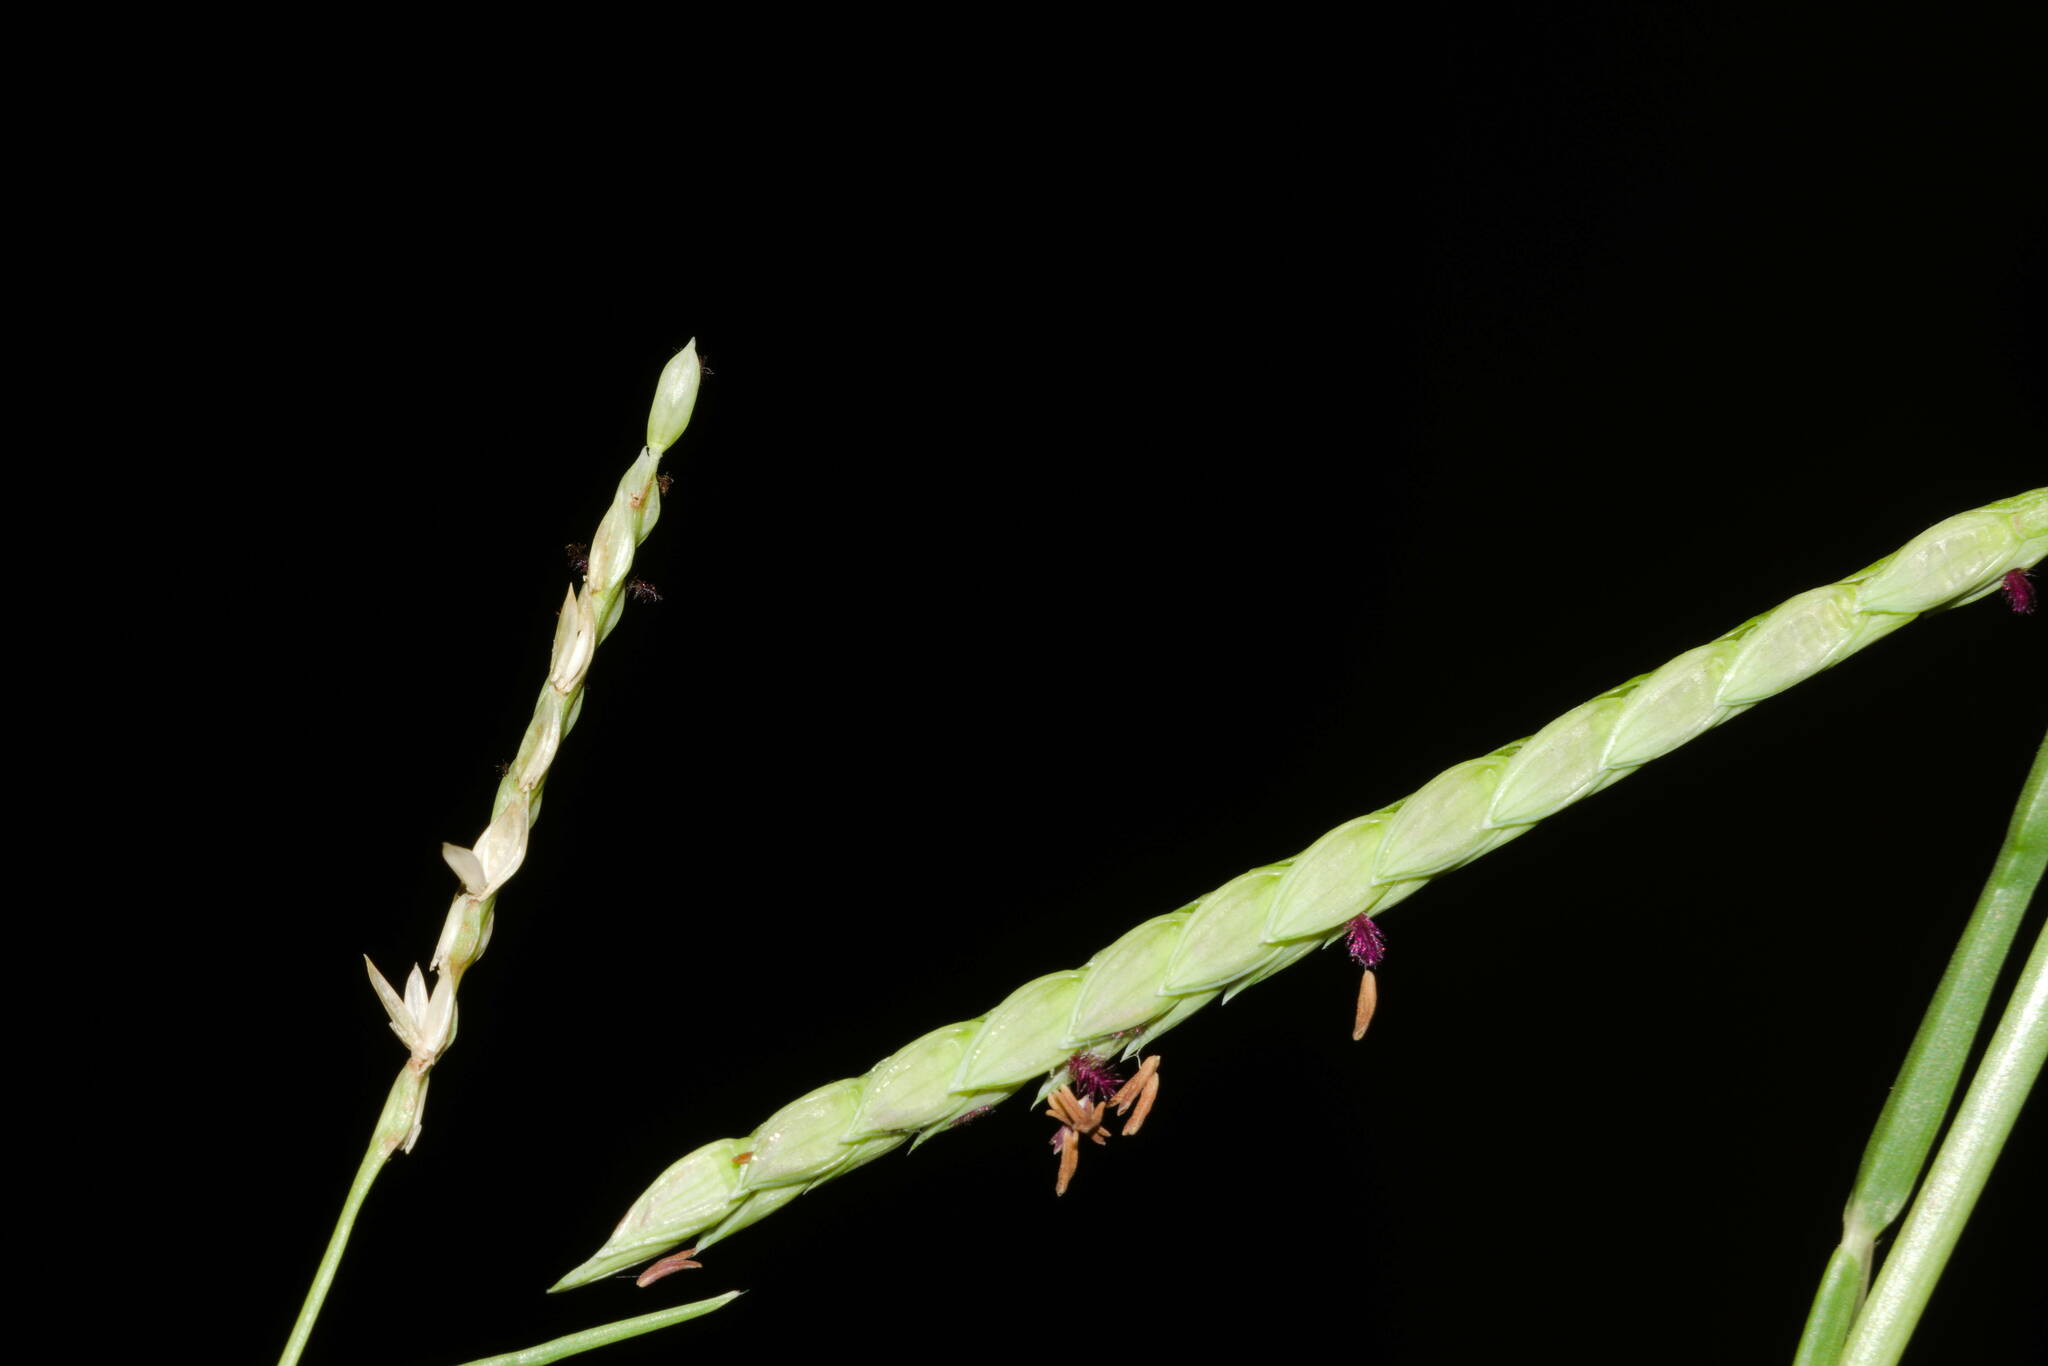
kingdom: Plantae
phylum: Tracheophyta
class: Liliopsida
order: Poales
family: Poaceae
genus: Paspalum
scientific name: Paspalum
